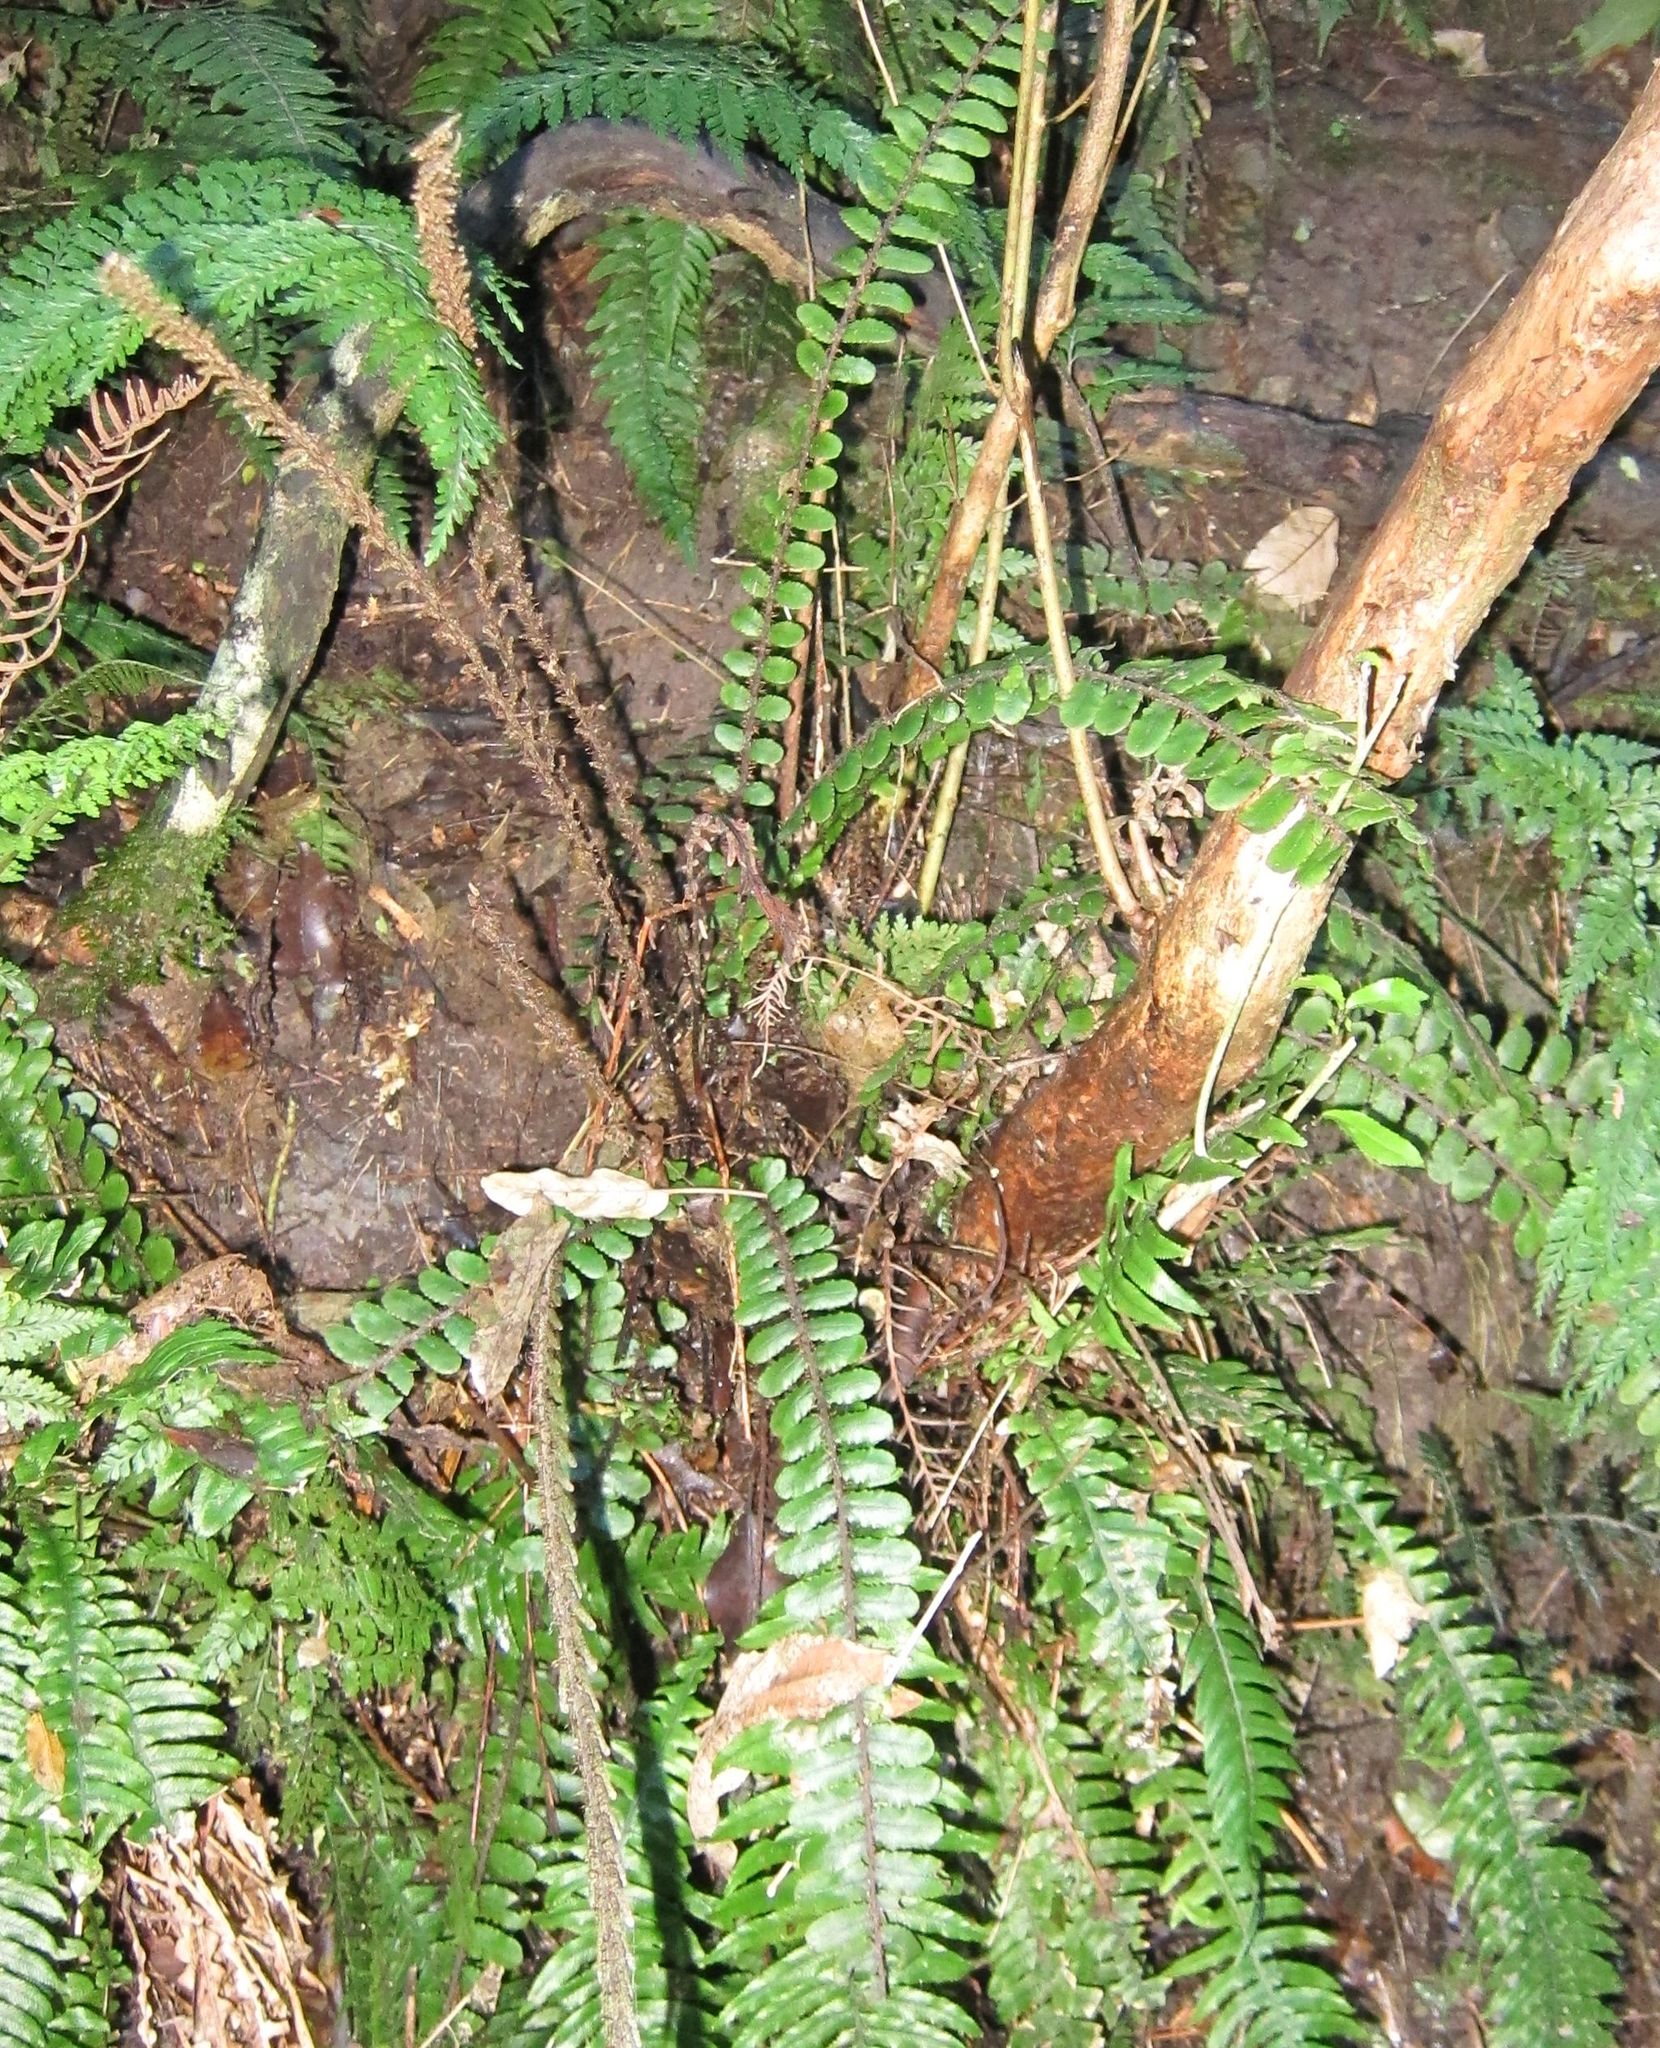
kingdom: Plantae
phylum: Tracheophyta
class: Polypodiopsida
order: Polypodiales
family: Blechnaceae
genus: Cranfillia
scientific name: Cranfillia fluviatilis
